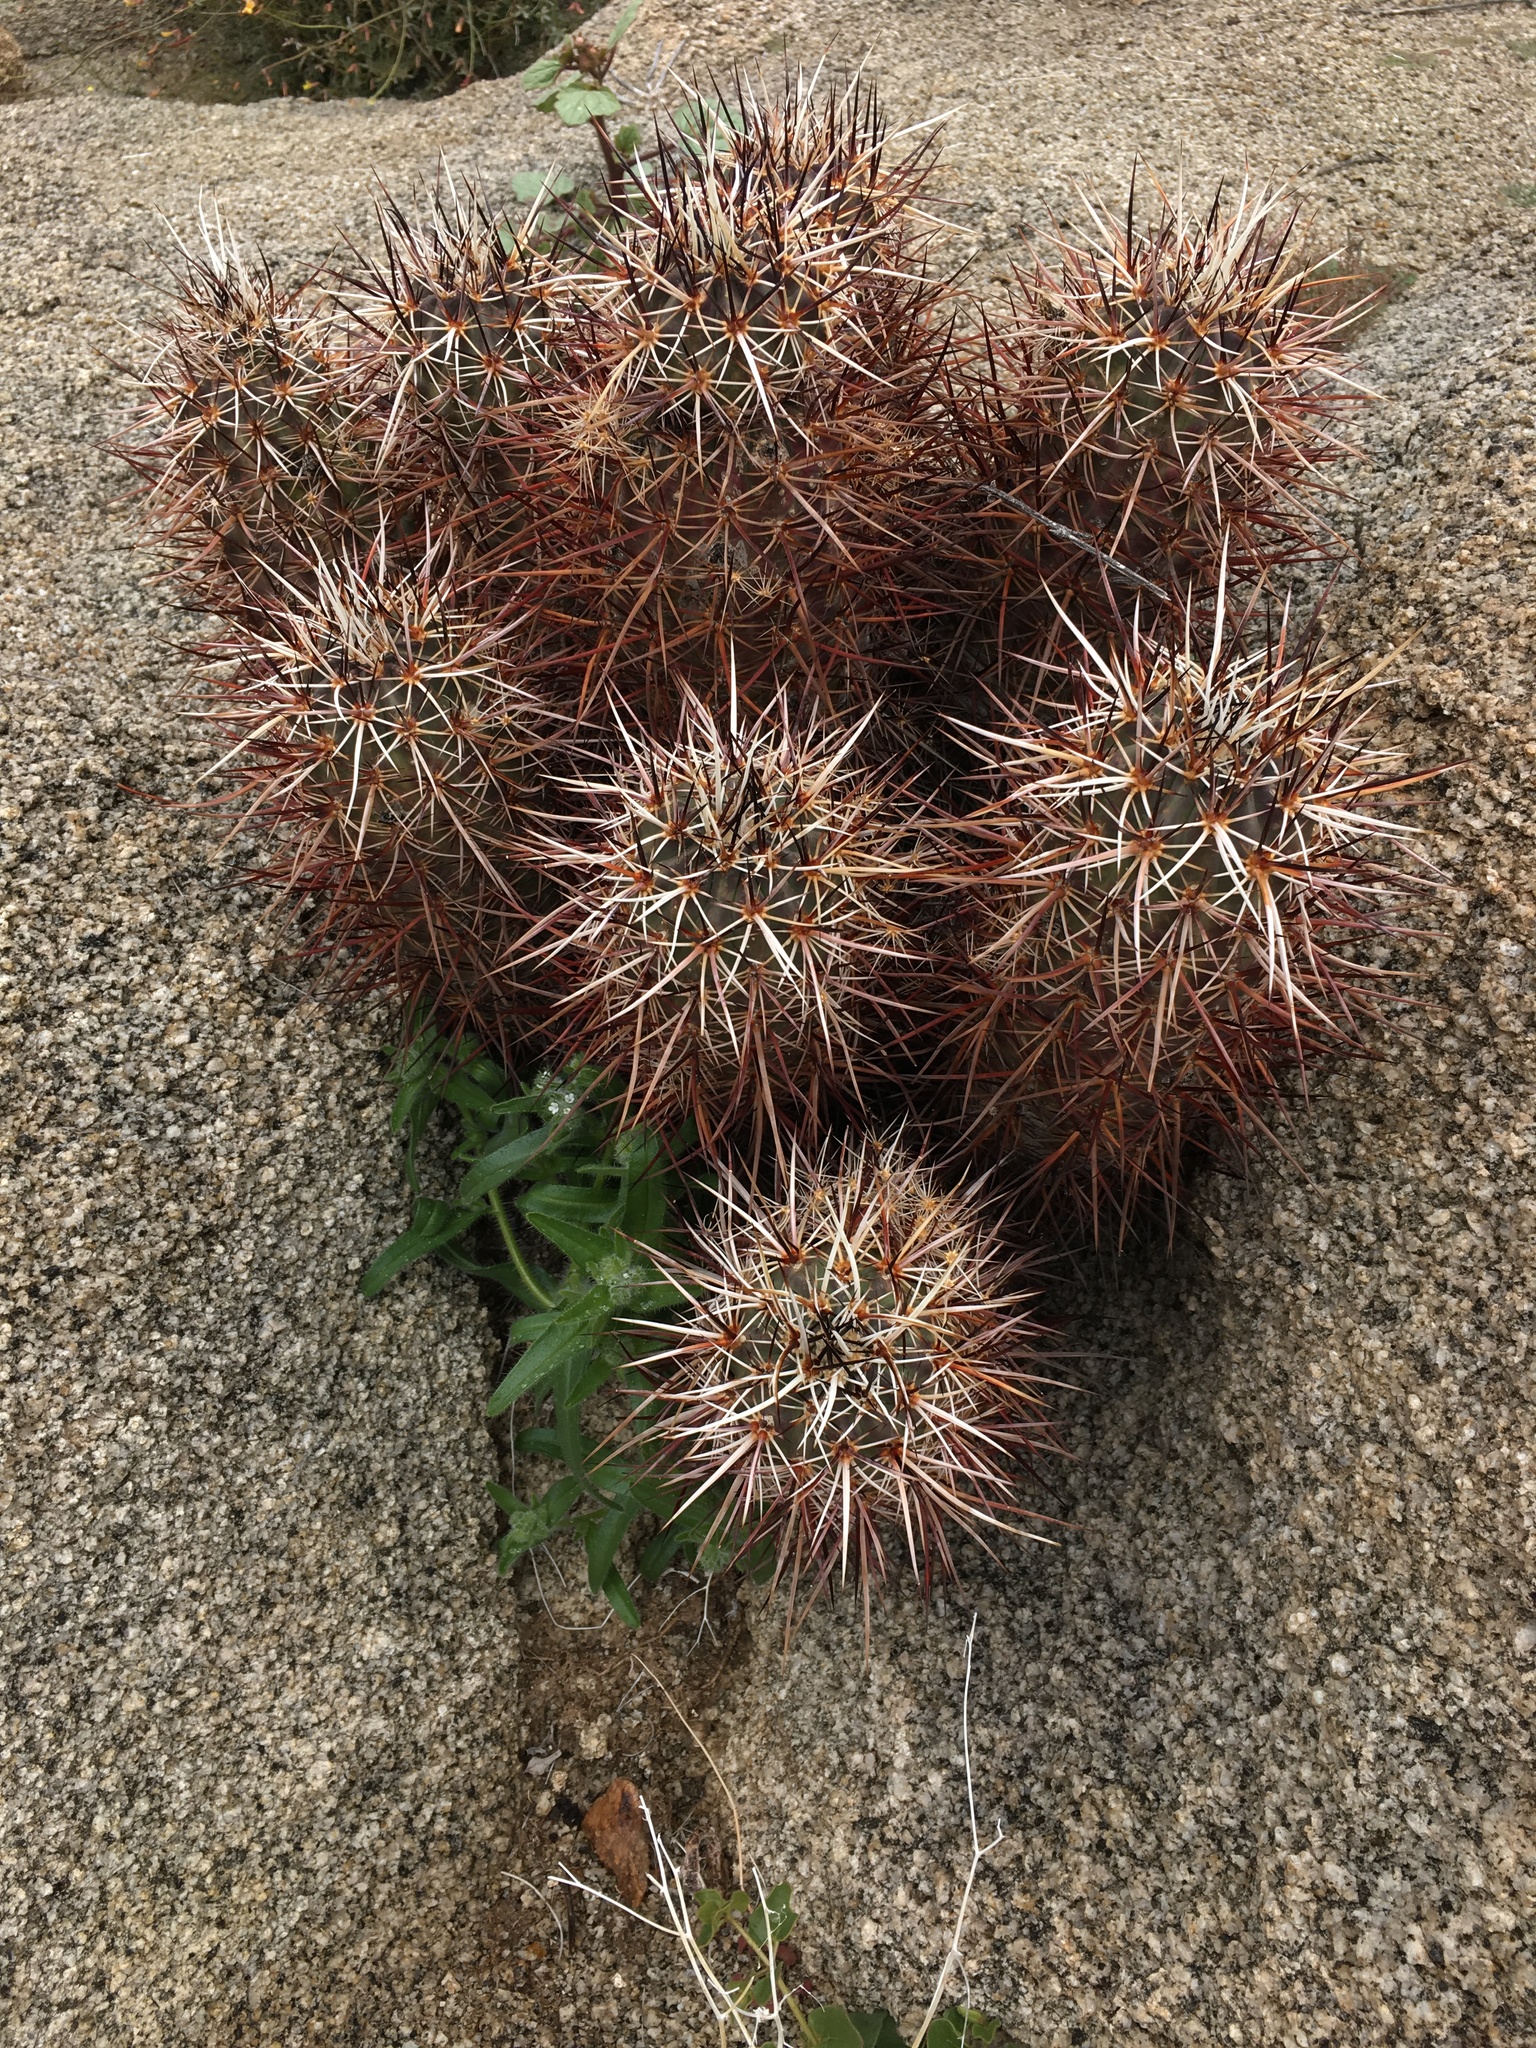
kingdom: Plantae
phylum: Tracheophyta
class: Magnoliopsida
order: Caryophyllales
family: Cactaceae
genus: Echinocereus
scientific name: Echinocereus engelmannii
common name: Engelmann's hedgehog cactus
